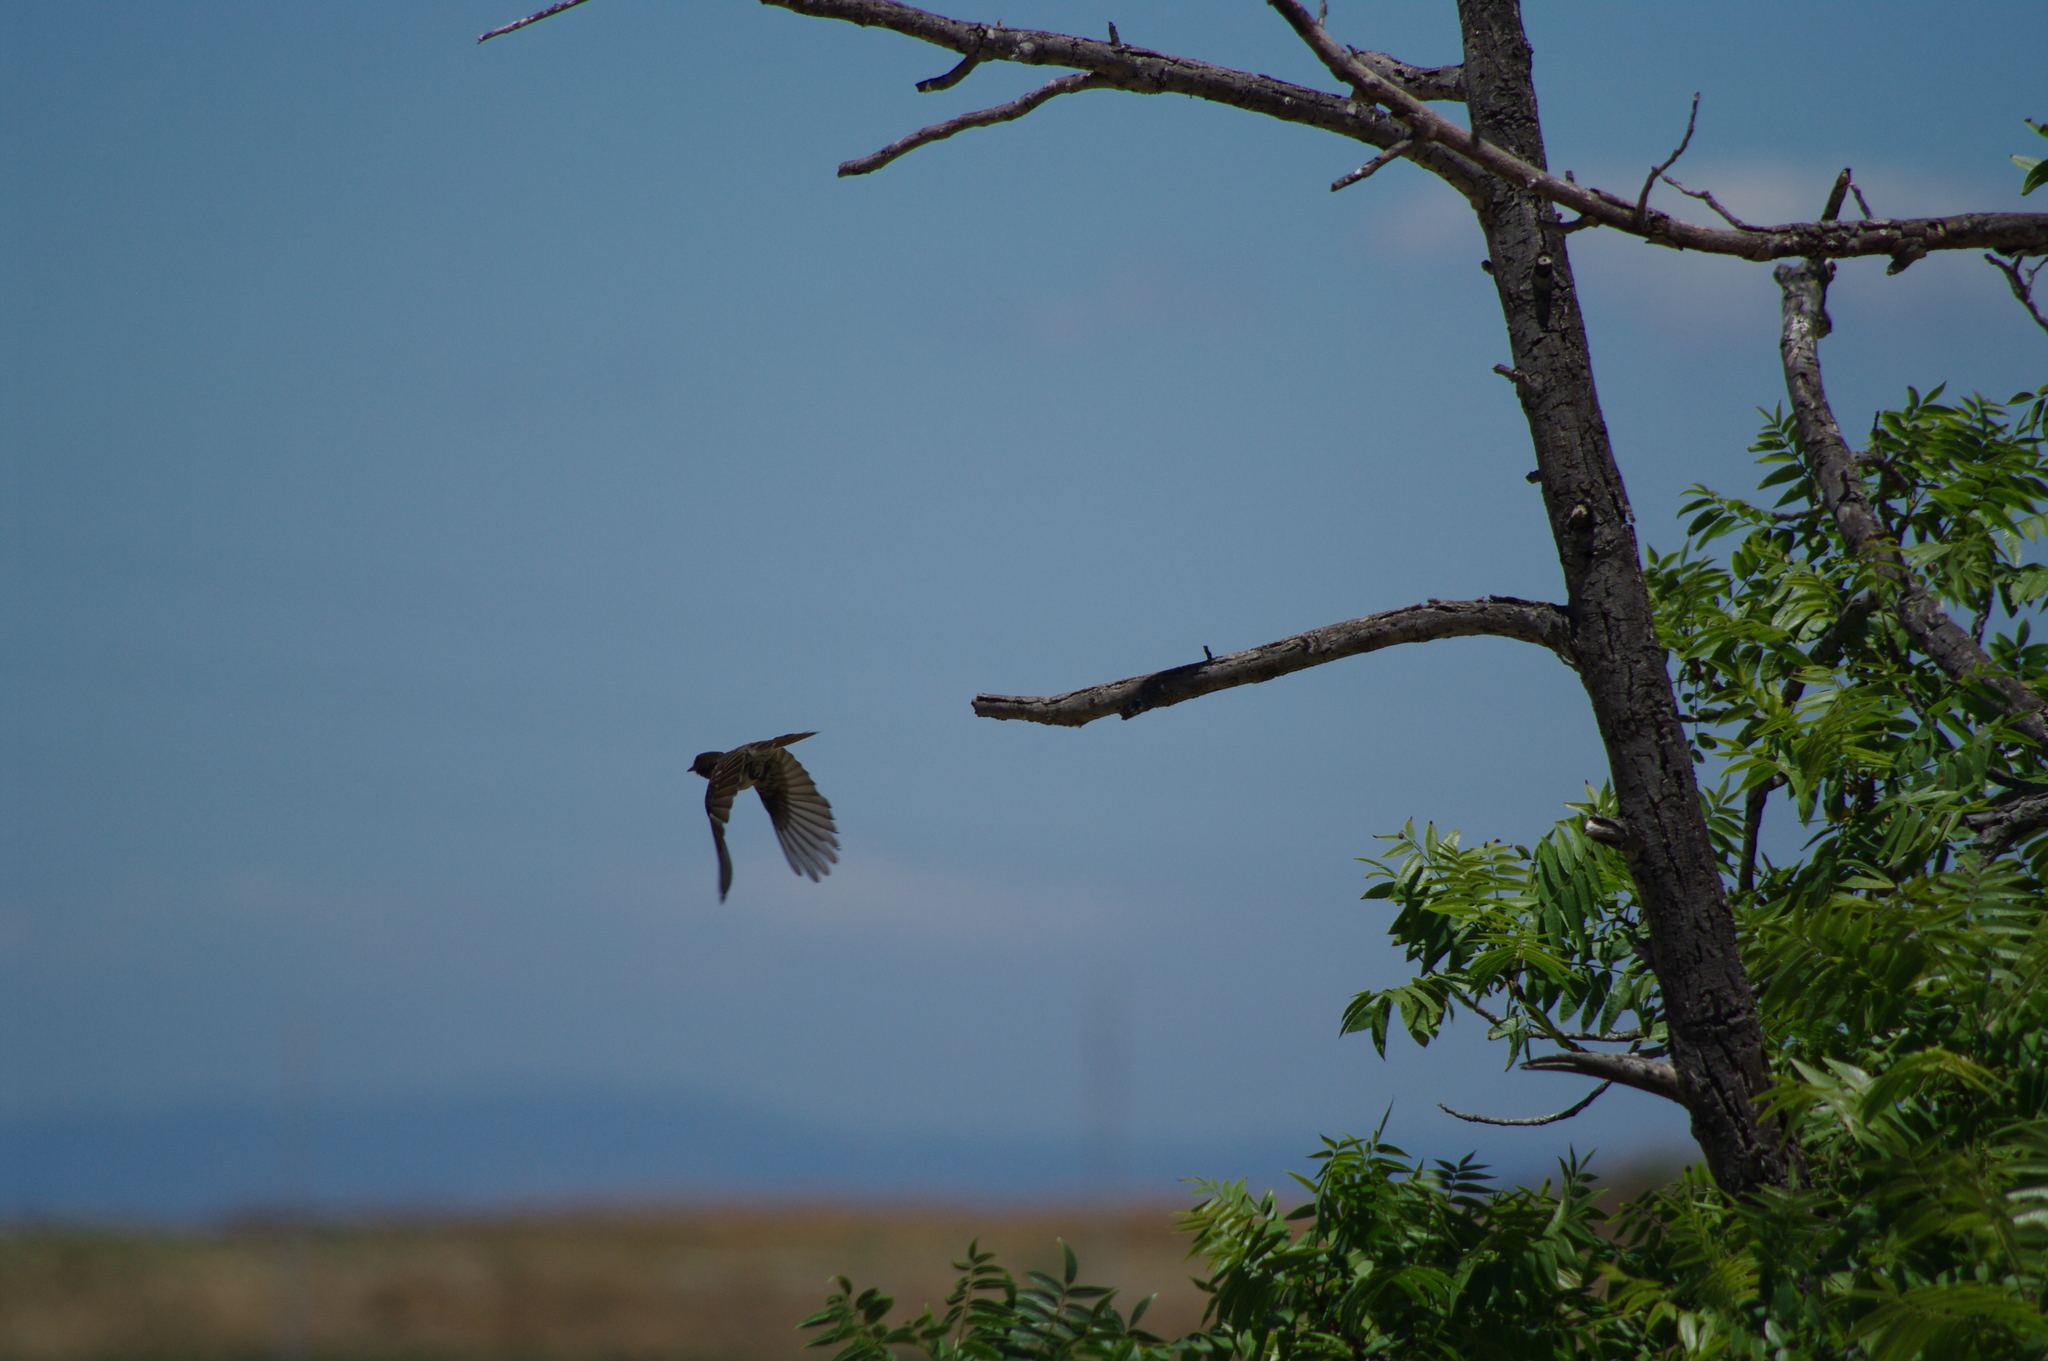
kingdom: Animalia
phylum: Chordata
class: Aves
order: Passeriformes
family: Tyrannidae
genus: Sayornis
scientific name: Sayornis nigricans
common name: Black phoebe
